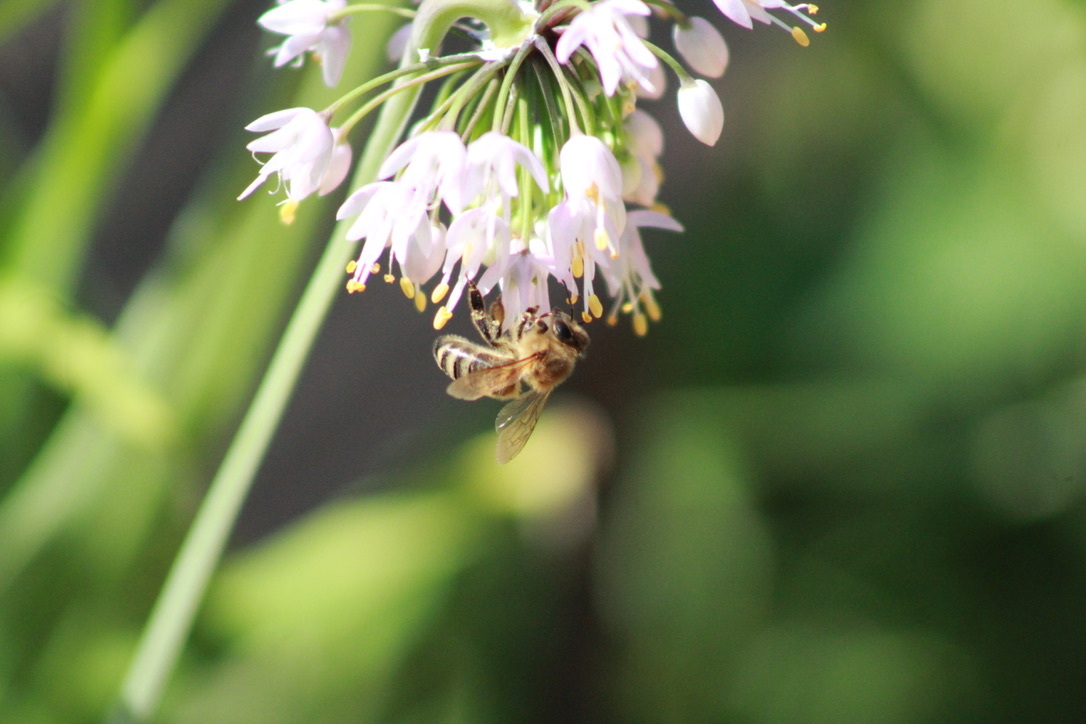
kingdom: Animalia
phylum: Arthropoda
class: Insecta
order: Hymenoptera
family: Apidae
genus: Apis
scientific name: Apis mellifera
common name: Honey bee
